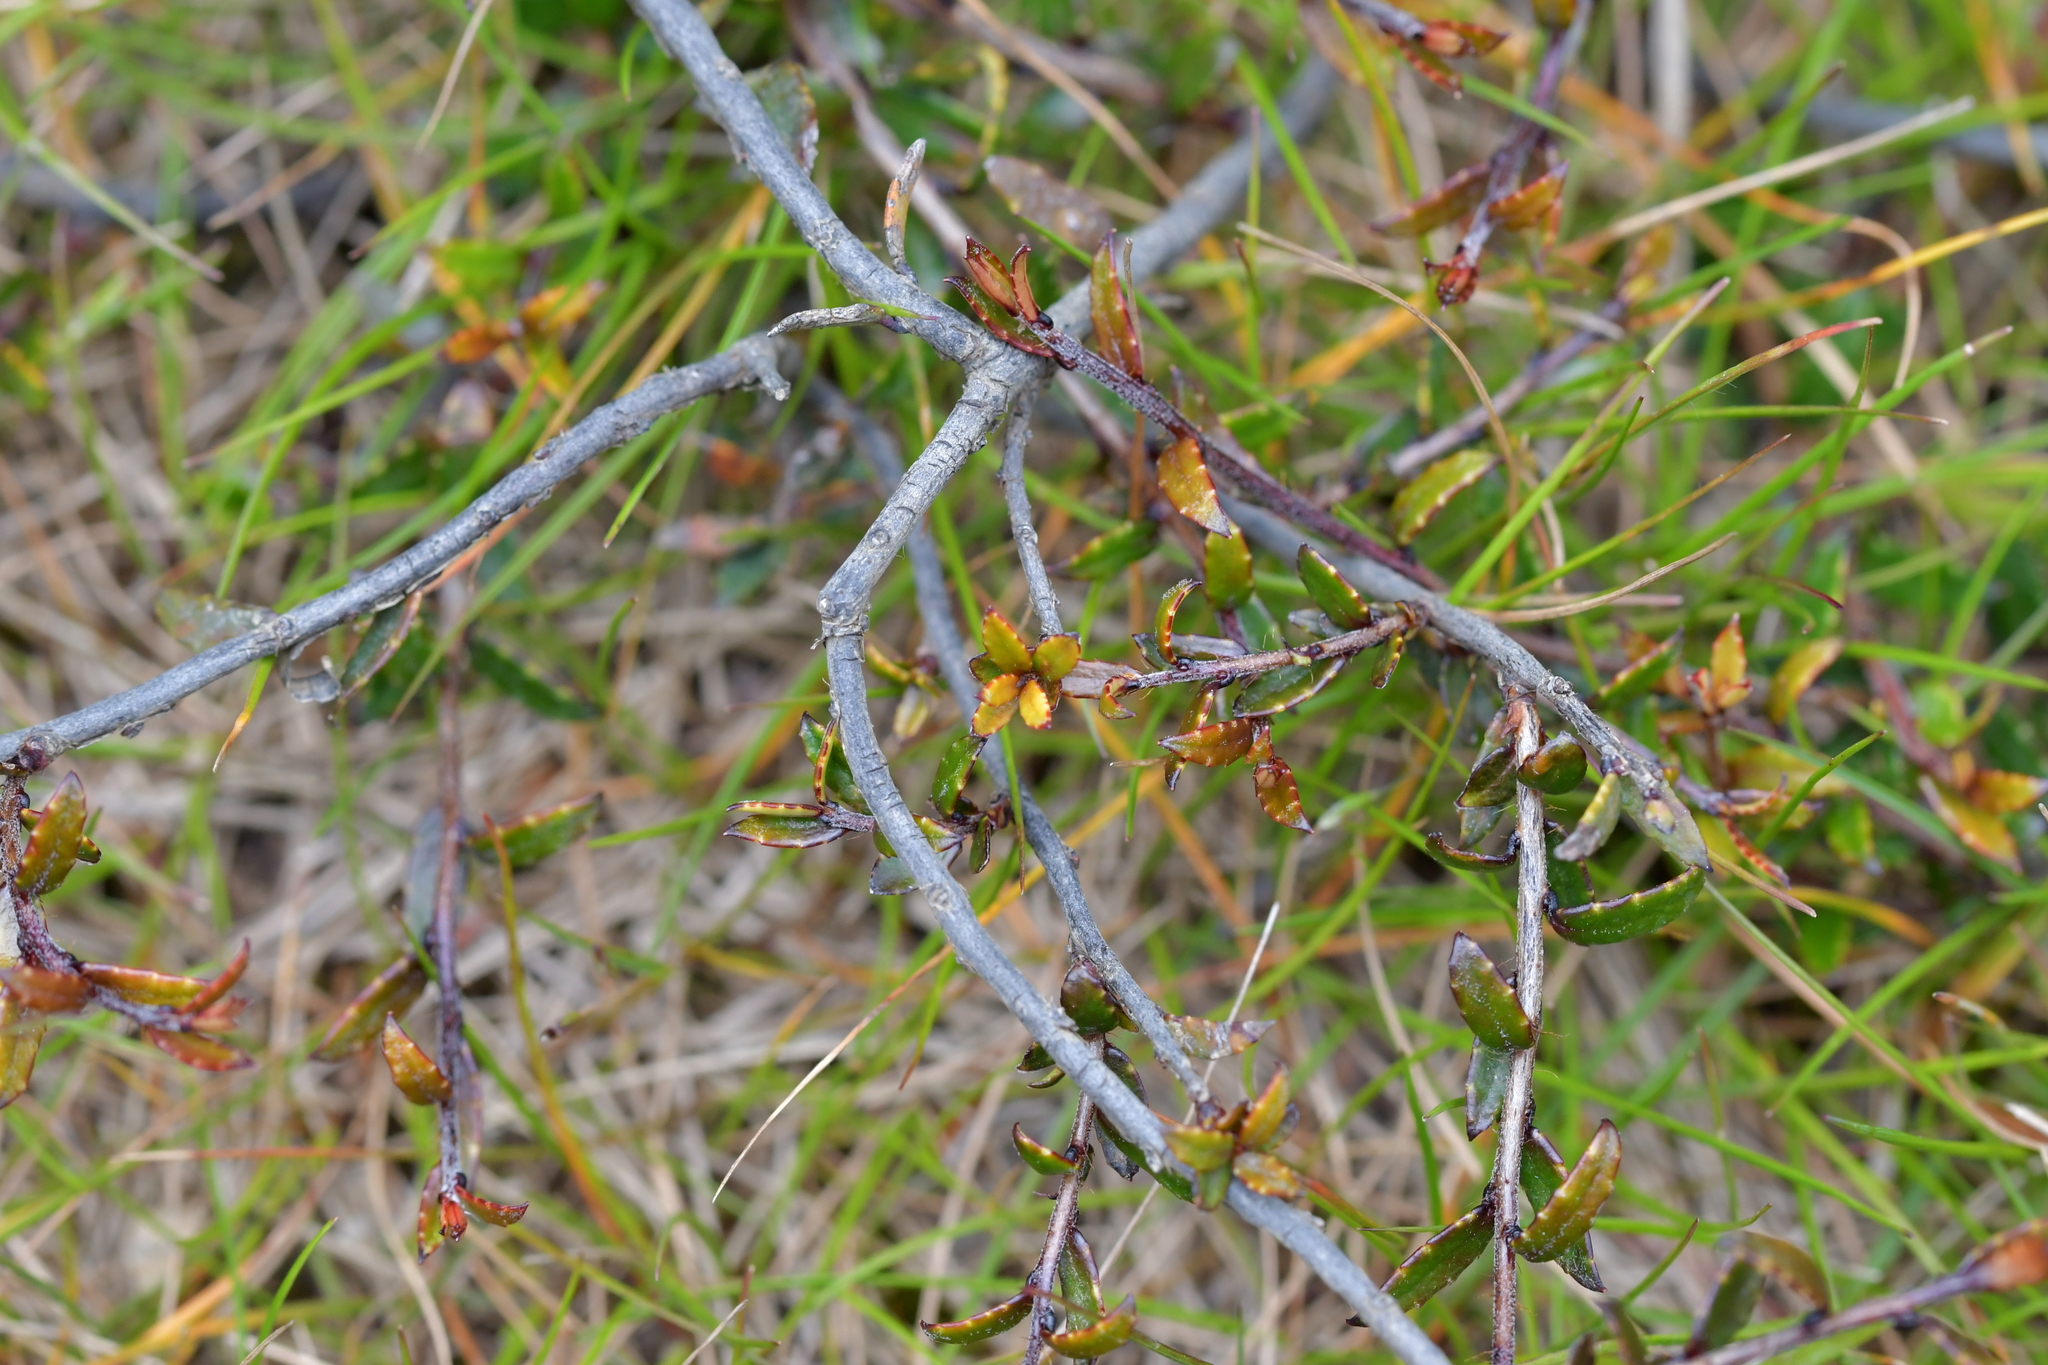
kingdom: Plantae
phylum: Tracheophyta
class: Magnoliopsida
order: Ericales
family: Ericaceae
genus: Gaultheria
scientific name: Gaultheria macrostigma
